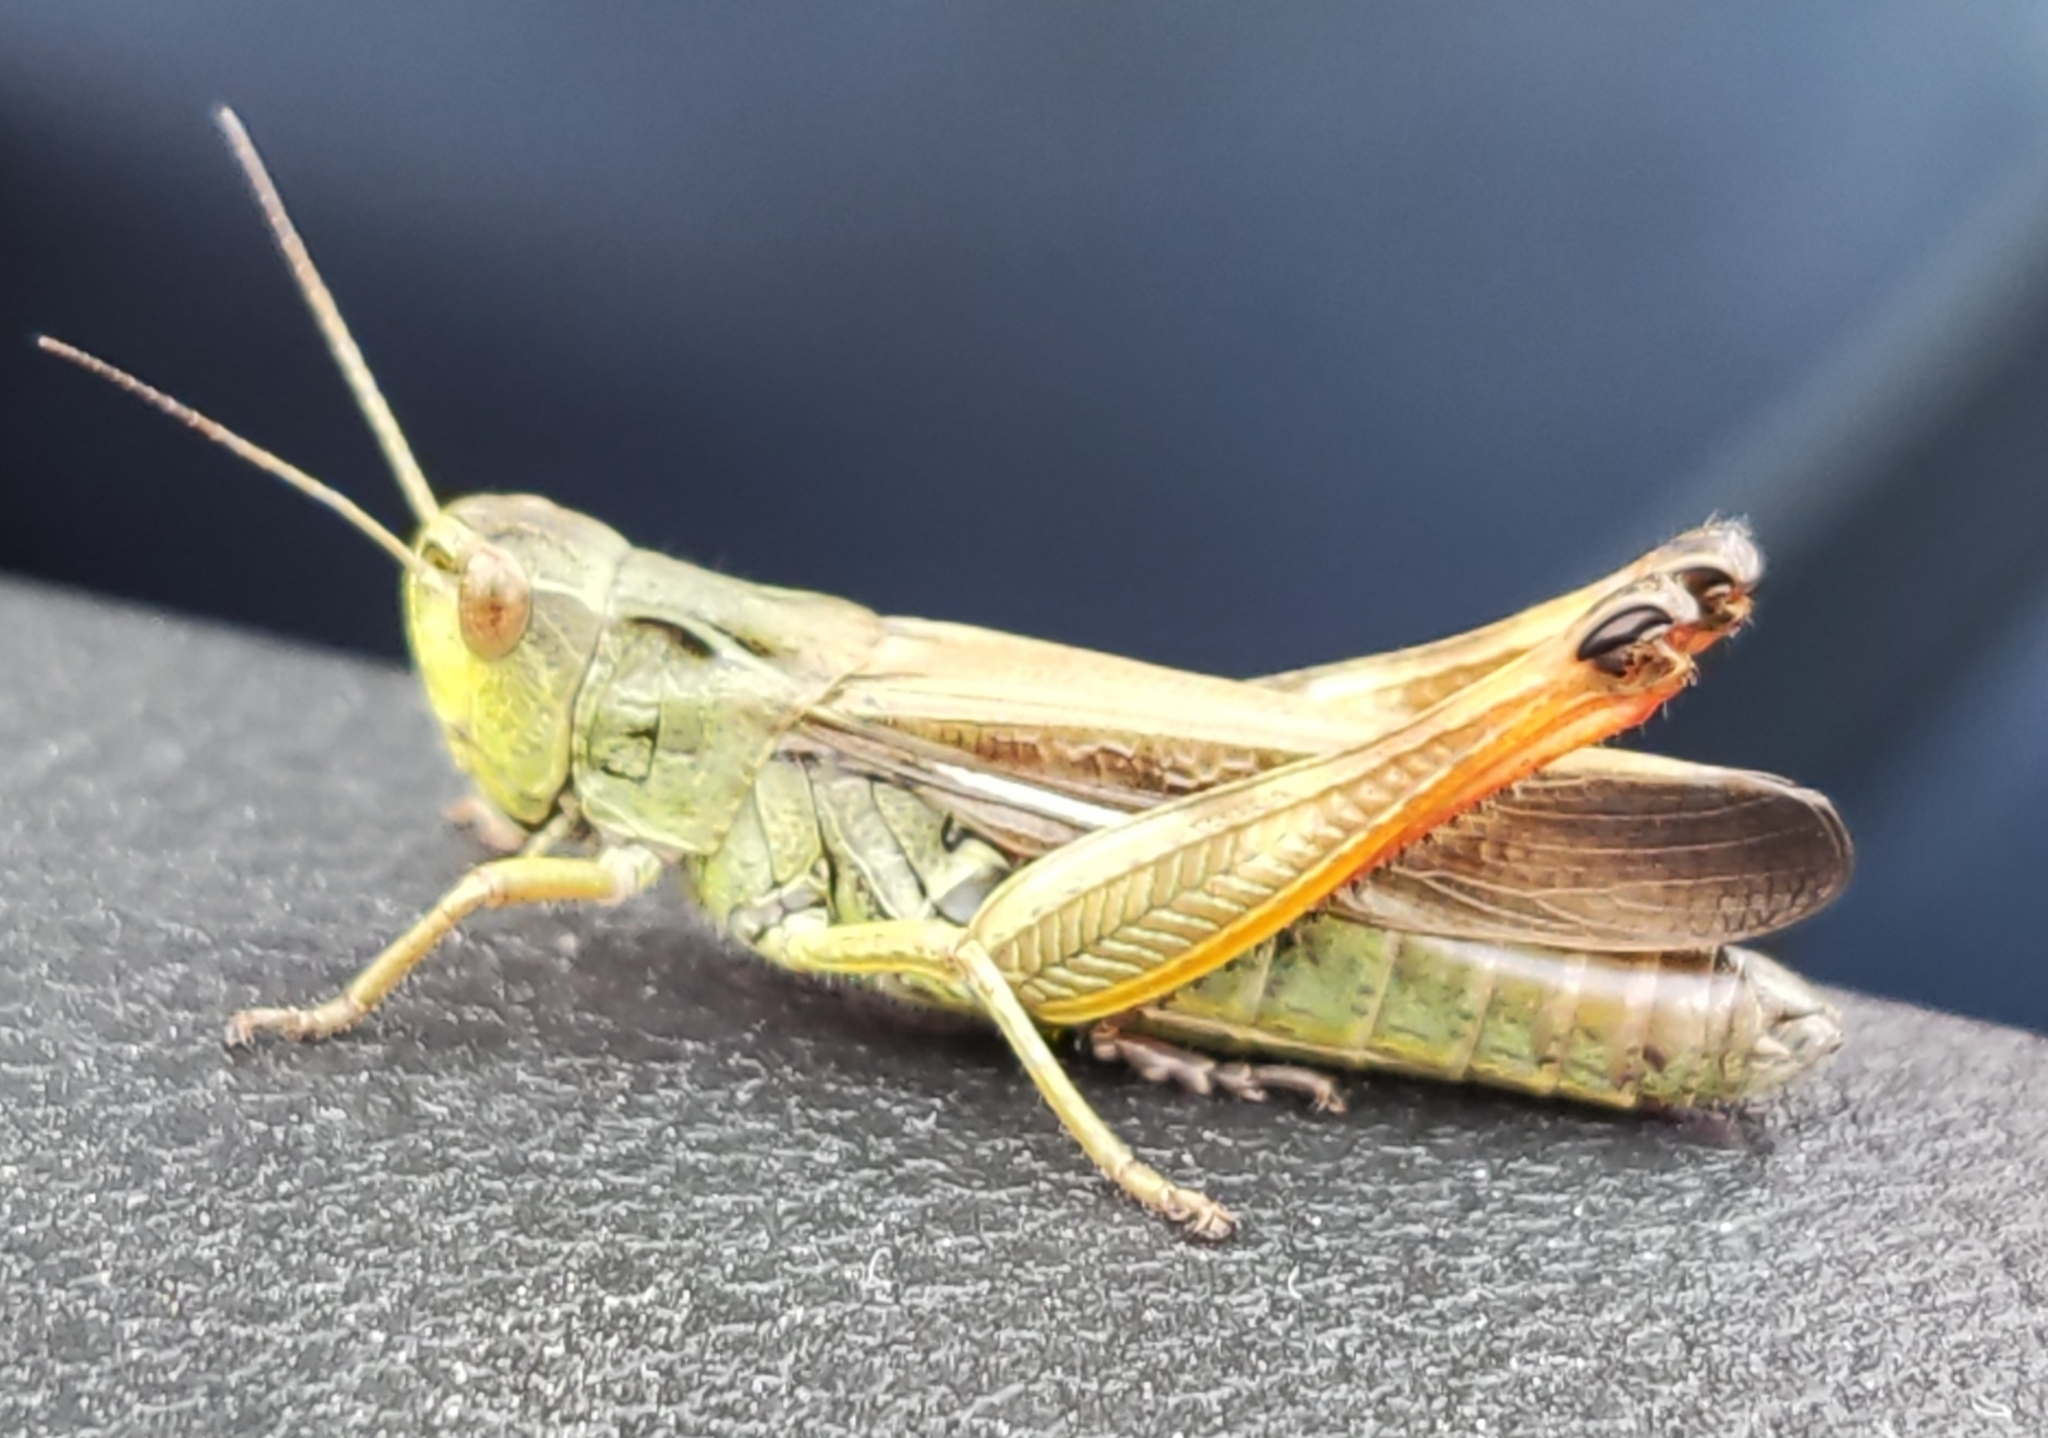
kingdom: Animalia
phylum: Arthropoda
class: Insecta
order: Orthoptera
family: Acrididae
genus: Stauroderus
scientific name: Stauroderus scalaris
